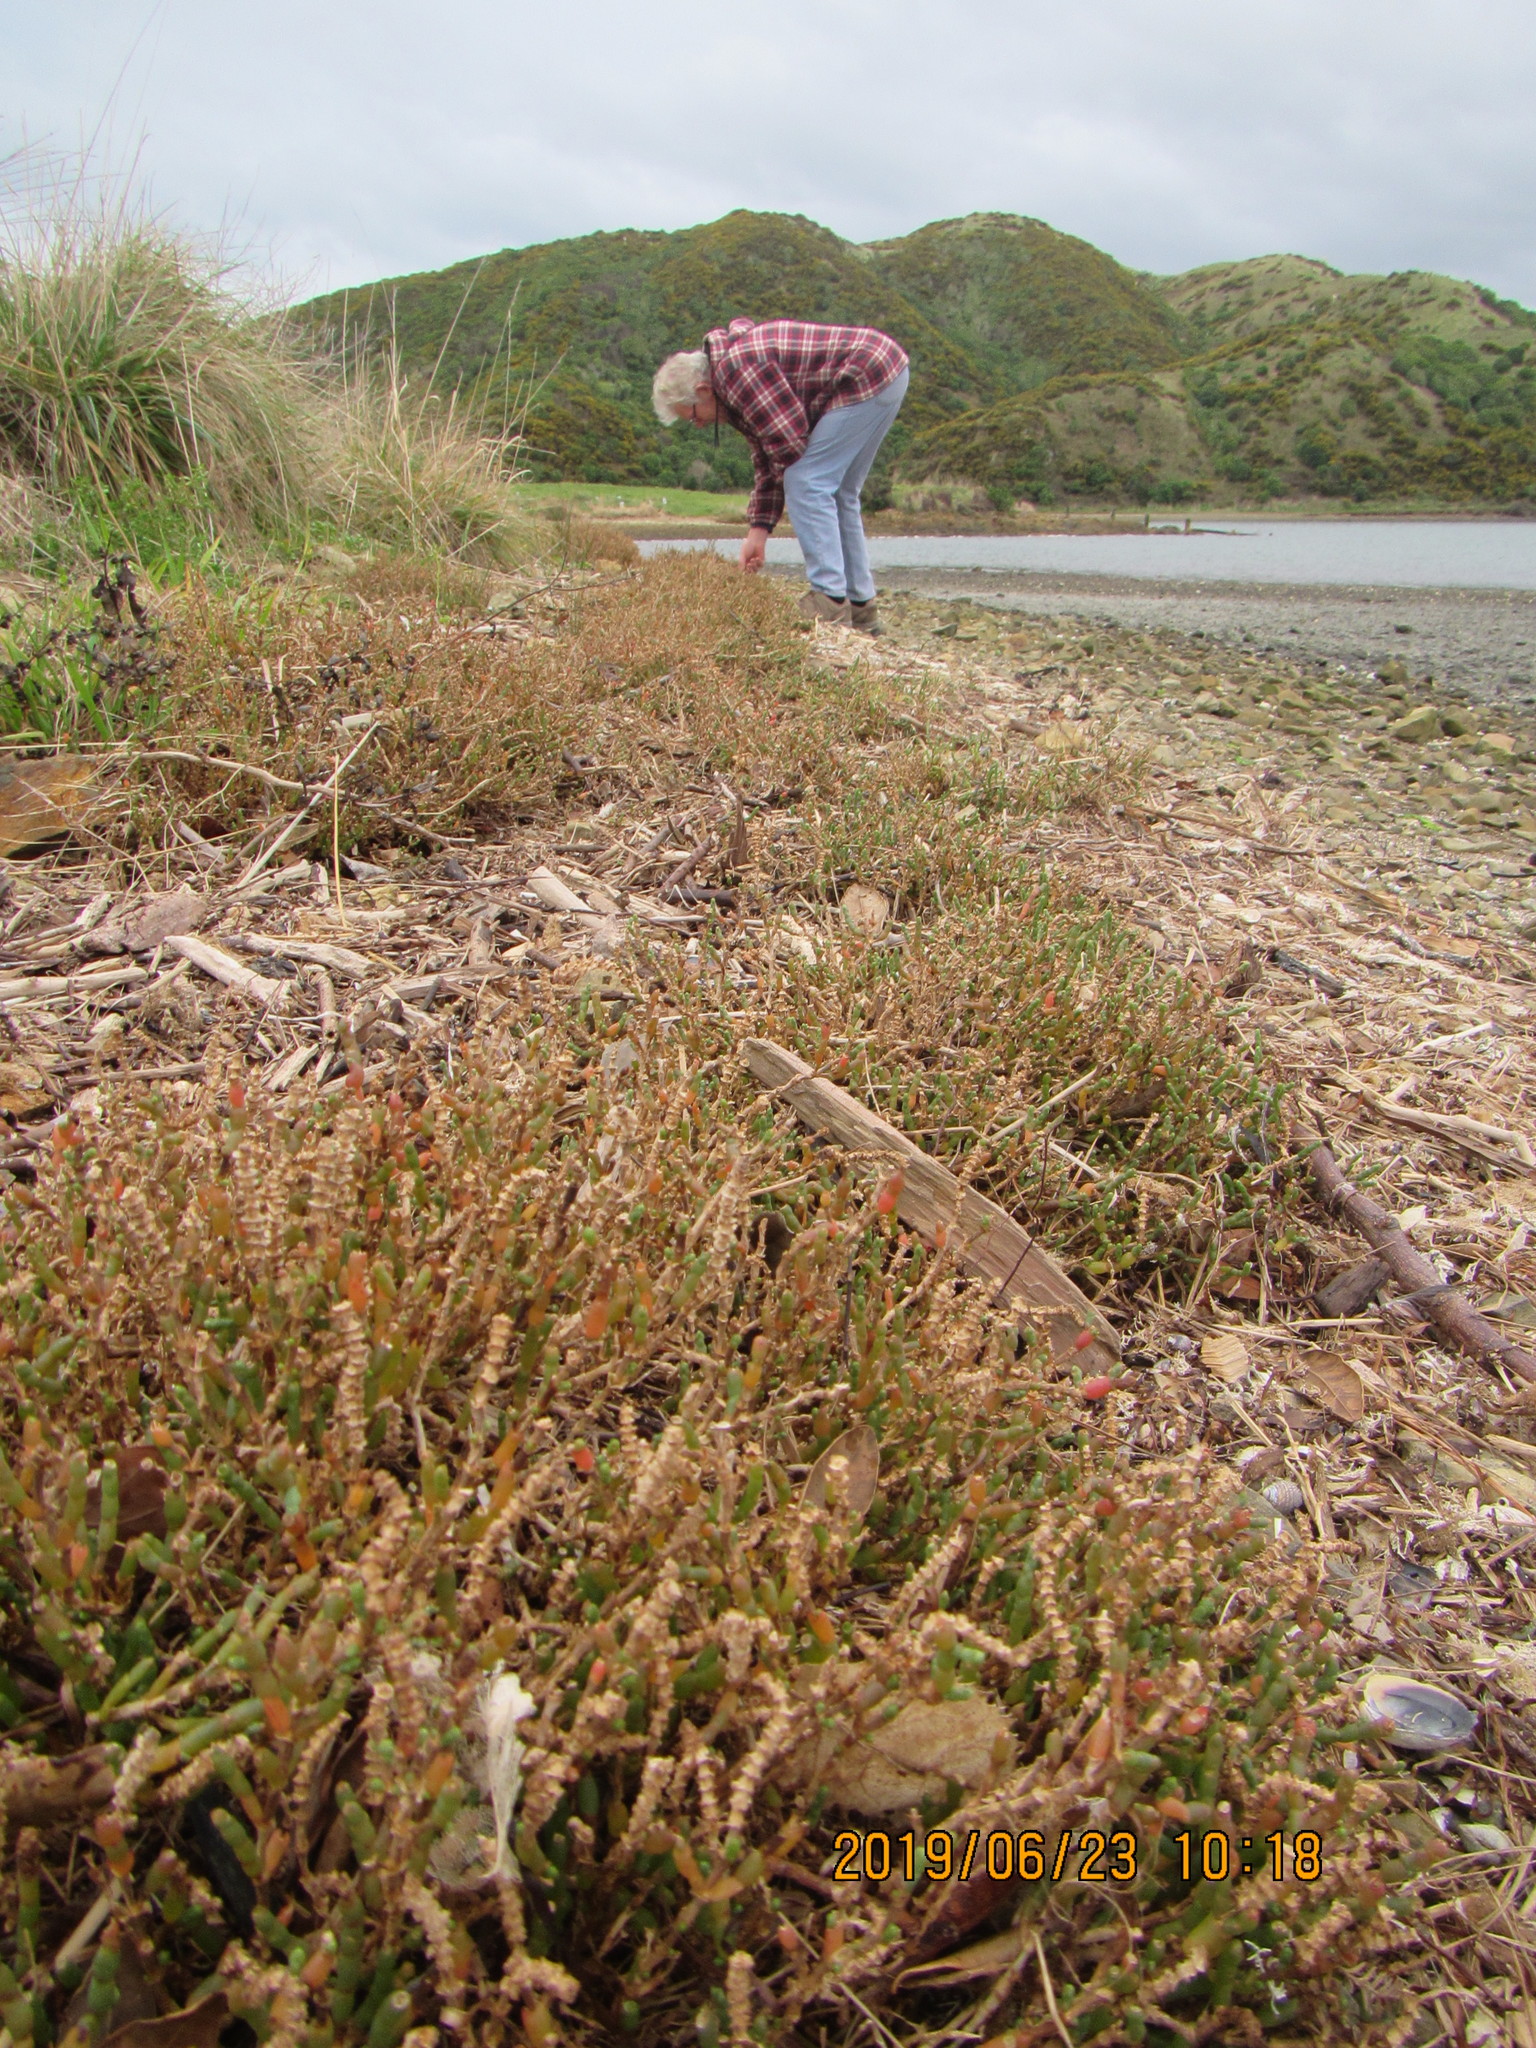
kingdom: Plantae
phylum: Tracheophyta
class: Magnoliopsida
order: Caryophyllales
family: Amaranthaceae
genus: Salicornia
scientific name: Salicornia quinqueflora
